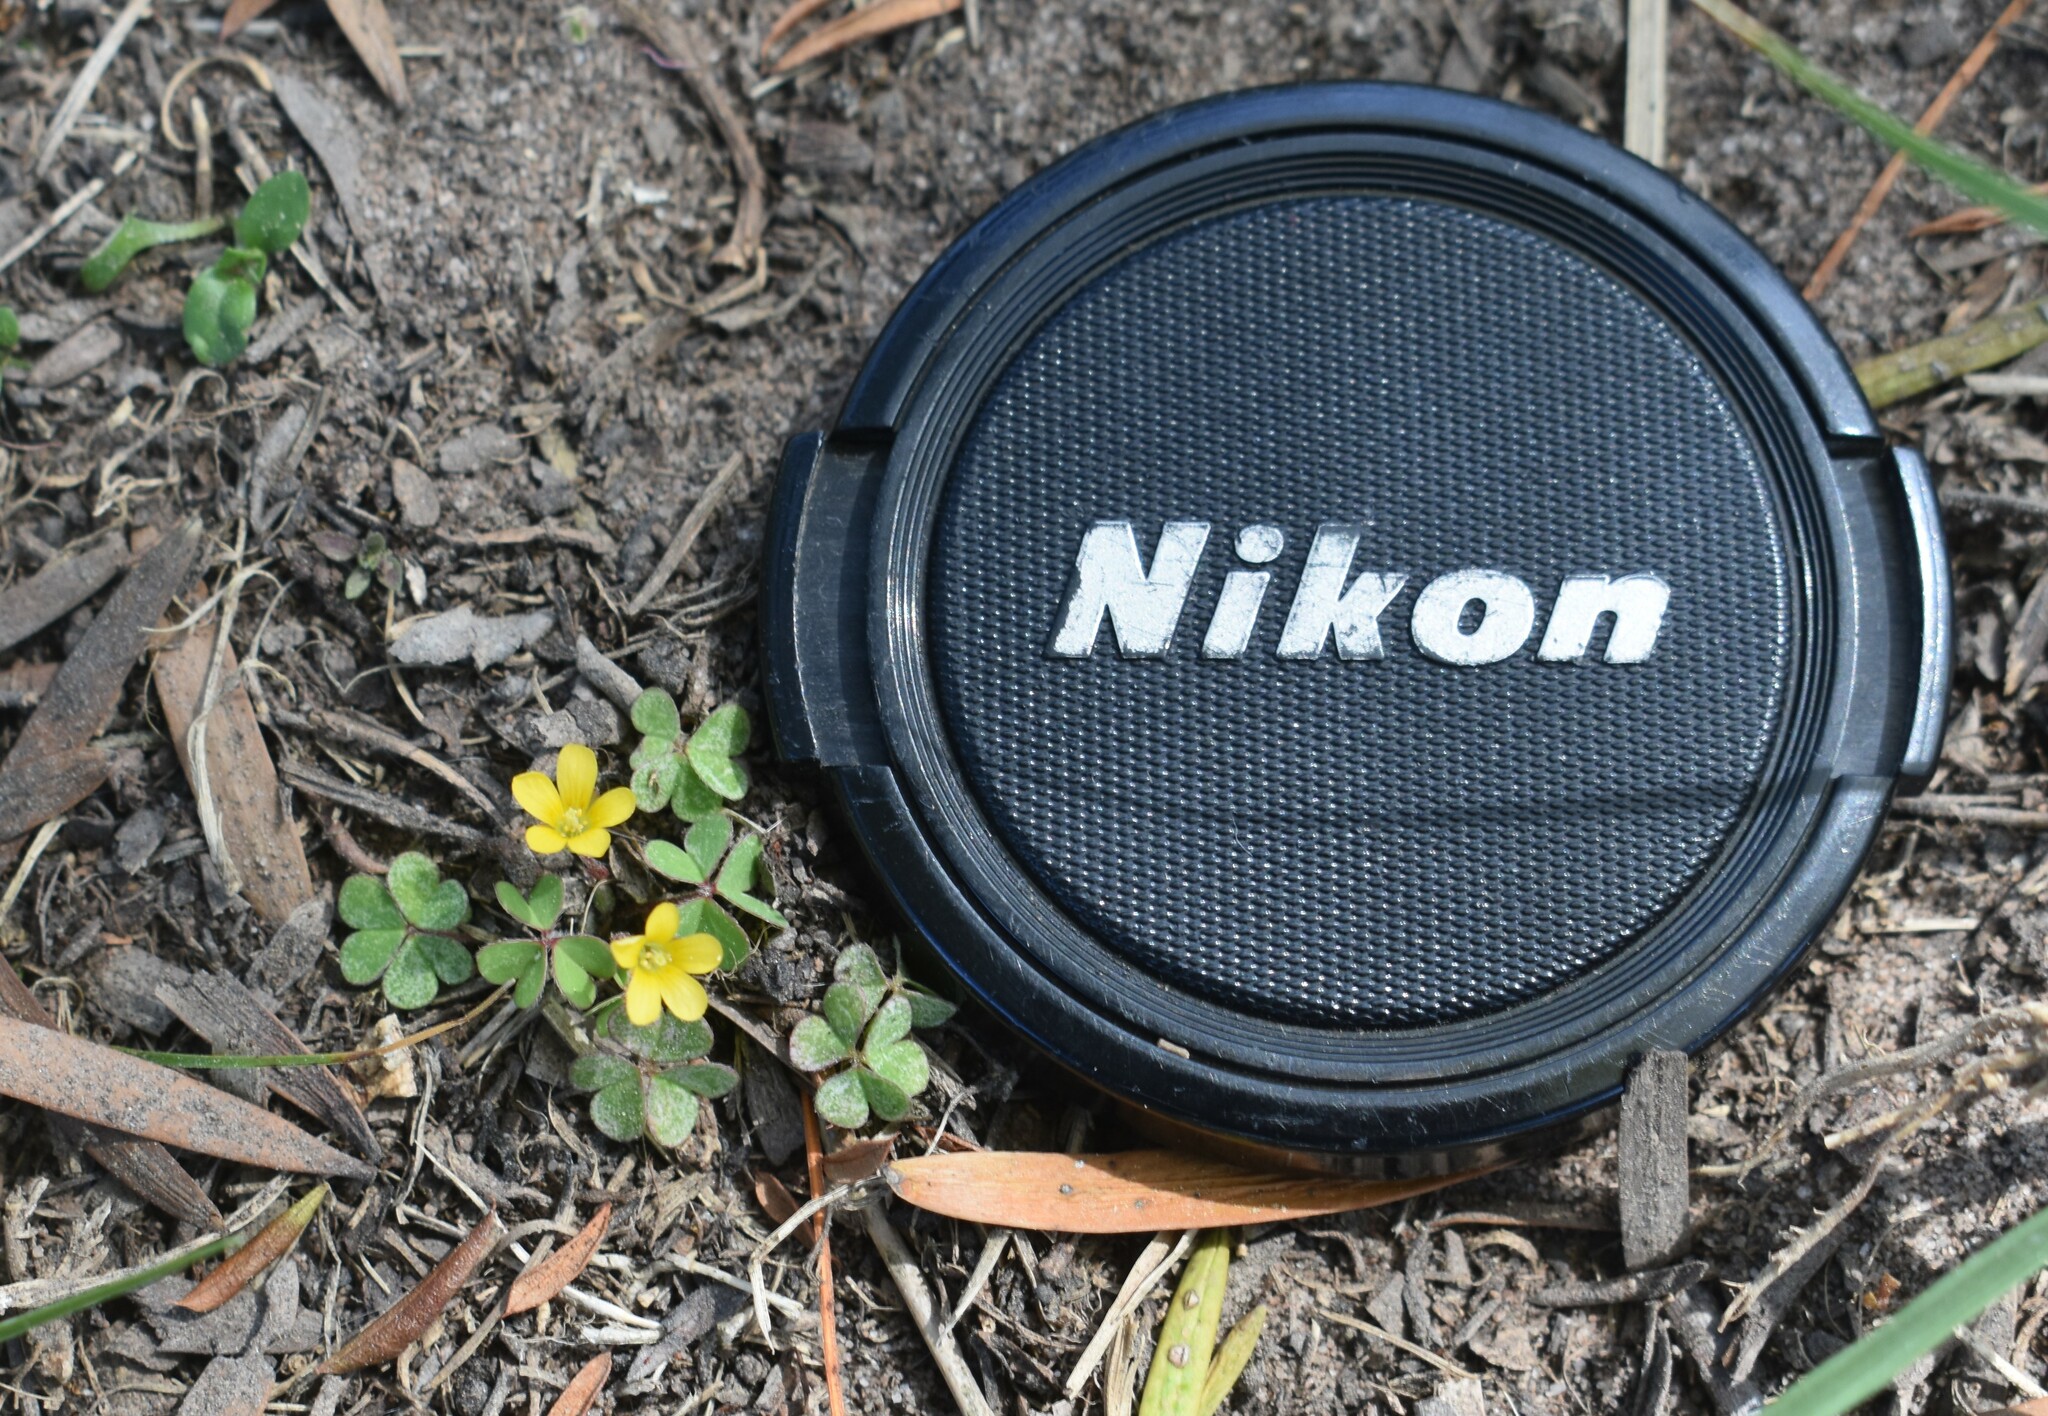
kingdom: Plantae
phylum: Tracheophyta
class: Magnoliopsida
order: Oxalidales
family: Oxalidaceae
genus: Oxalis
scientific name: Oxalis corniculata
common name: Procumbent yellow-sorrel
